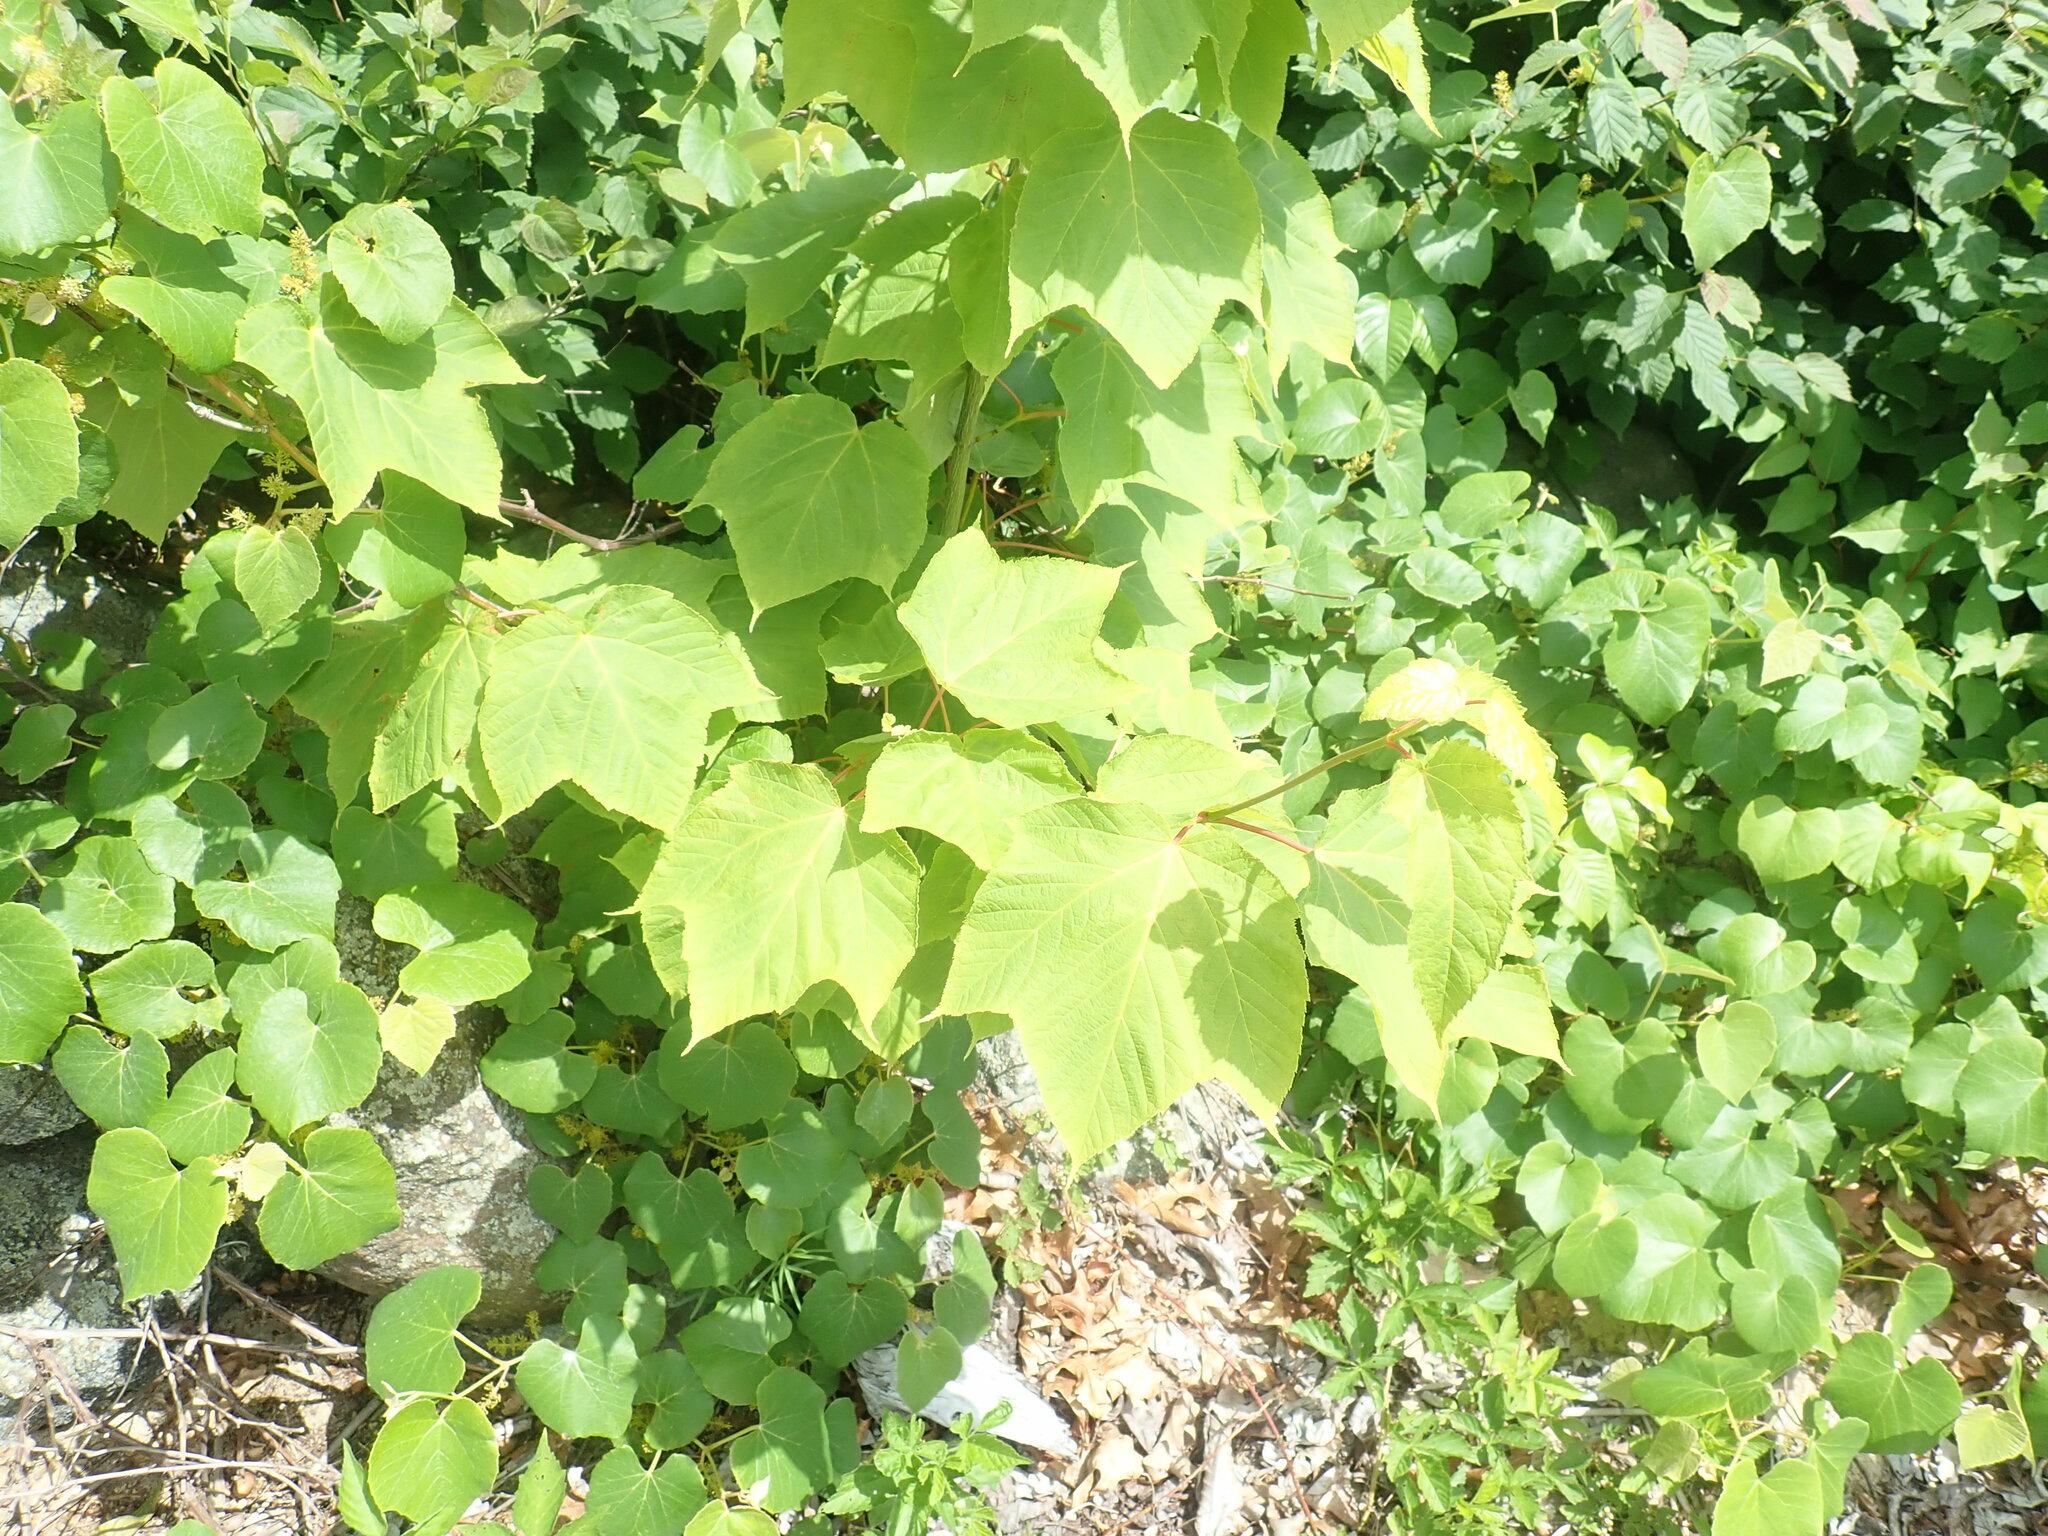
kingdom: Plantae
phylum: Tracheophyta
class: Magnoliopsida
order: Sapindales
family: Sapindaceae
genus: Acer
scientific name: Acer pensylvanicum
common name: Moosewood
